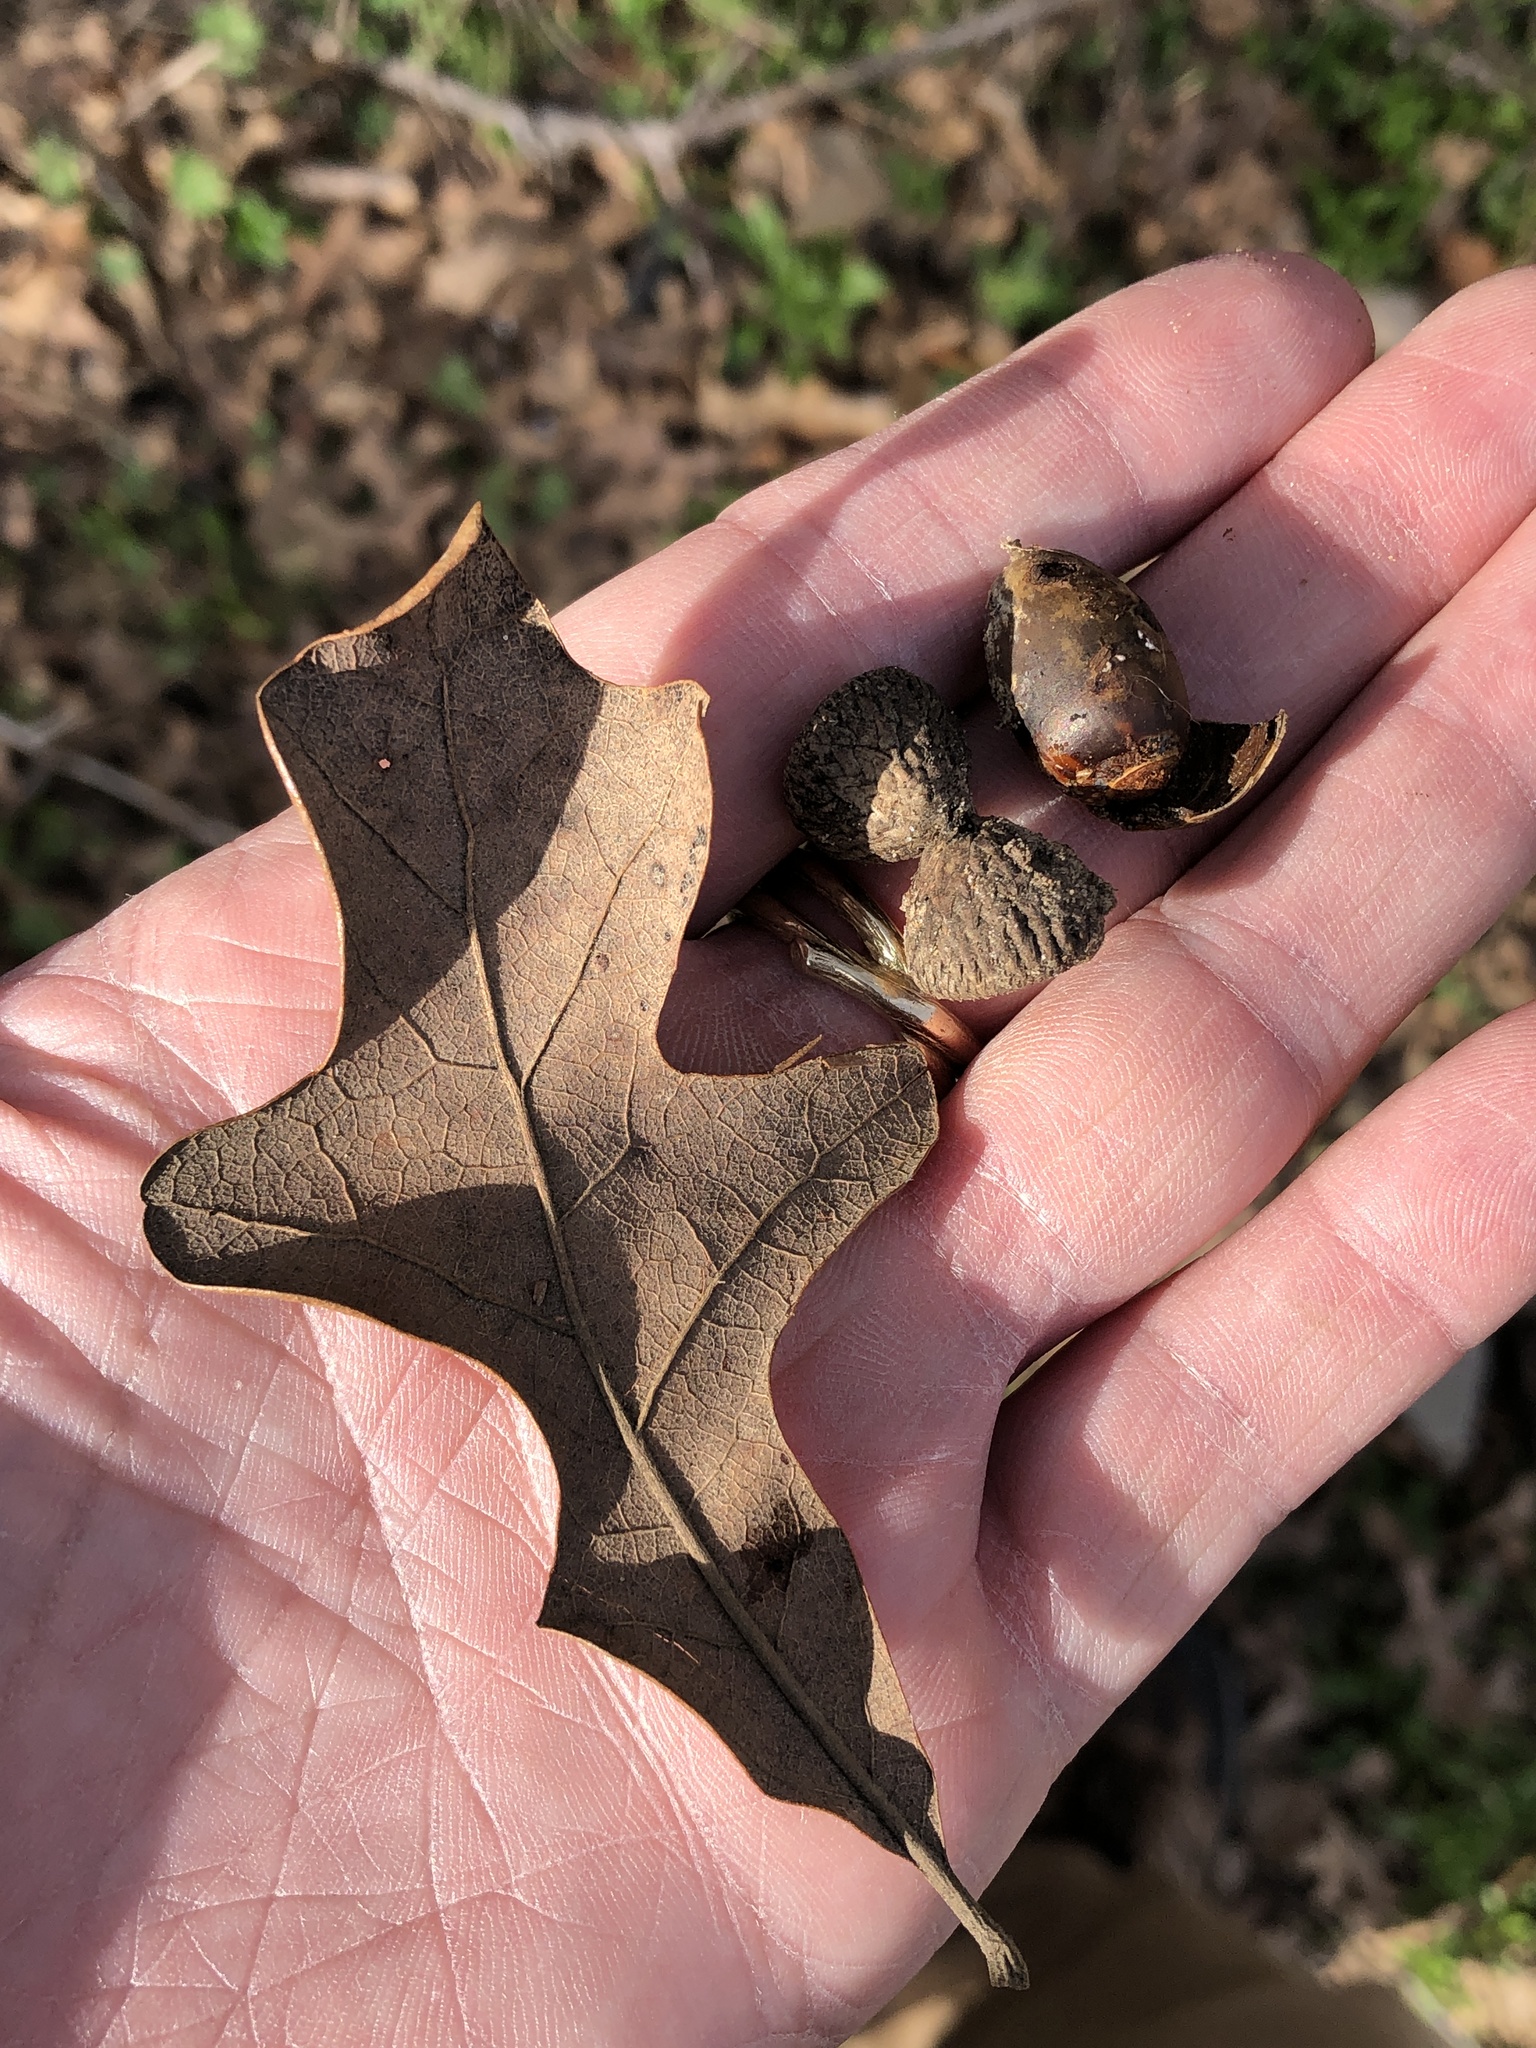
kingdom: Plantae
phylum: Tracheophyta
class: Magnoliopsida
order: Fagales
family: Fagaceae
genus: Quercus
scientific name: Quercus stellata
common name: Post oak
